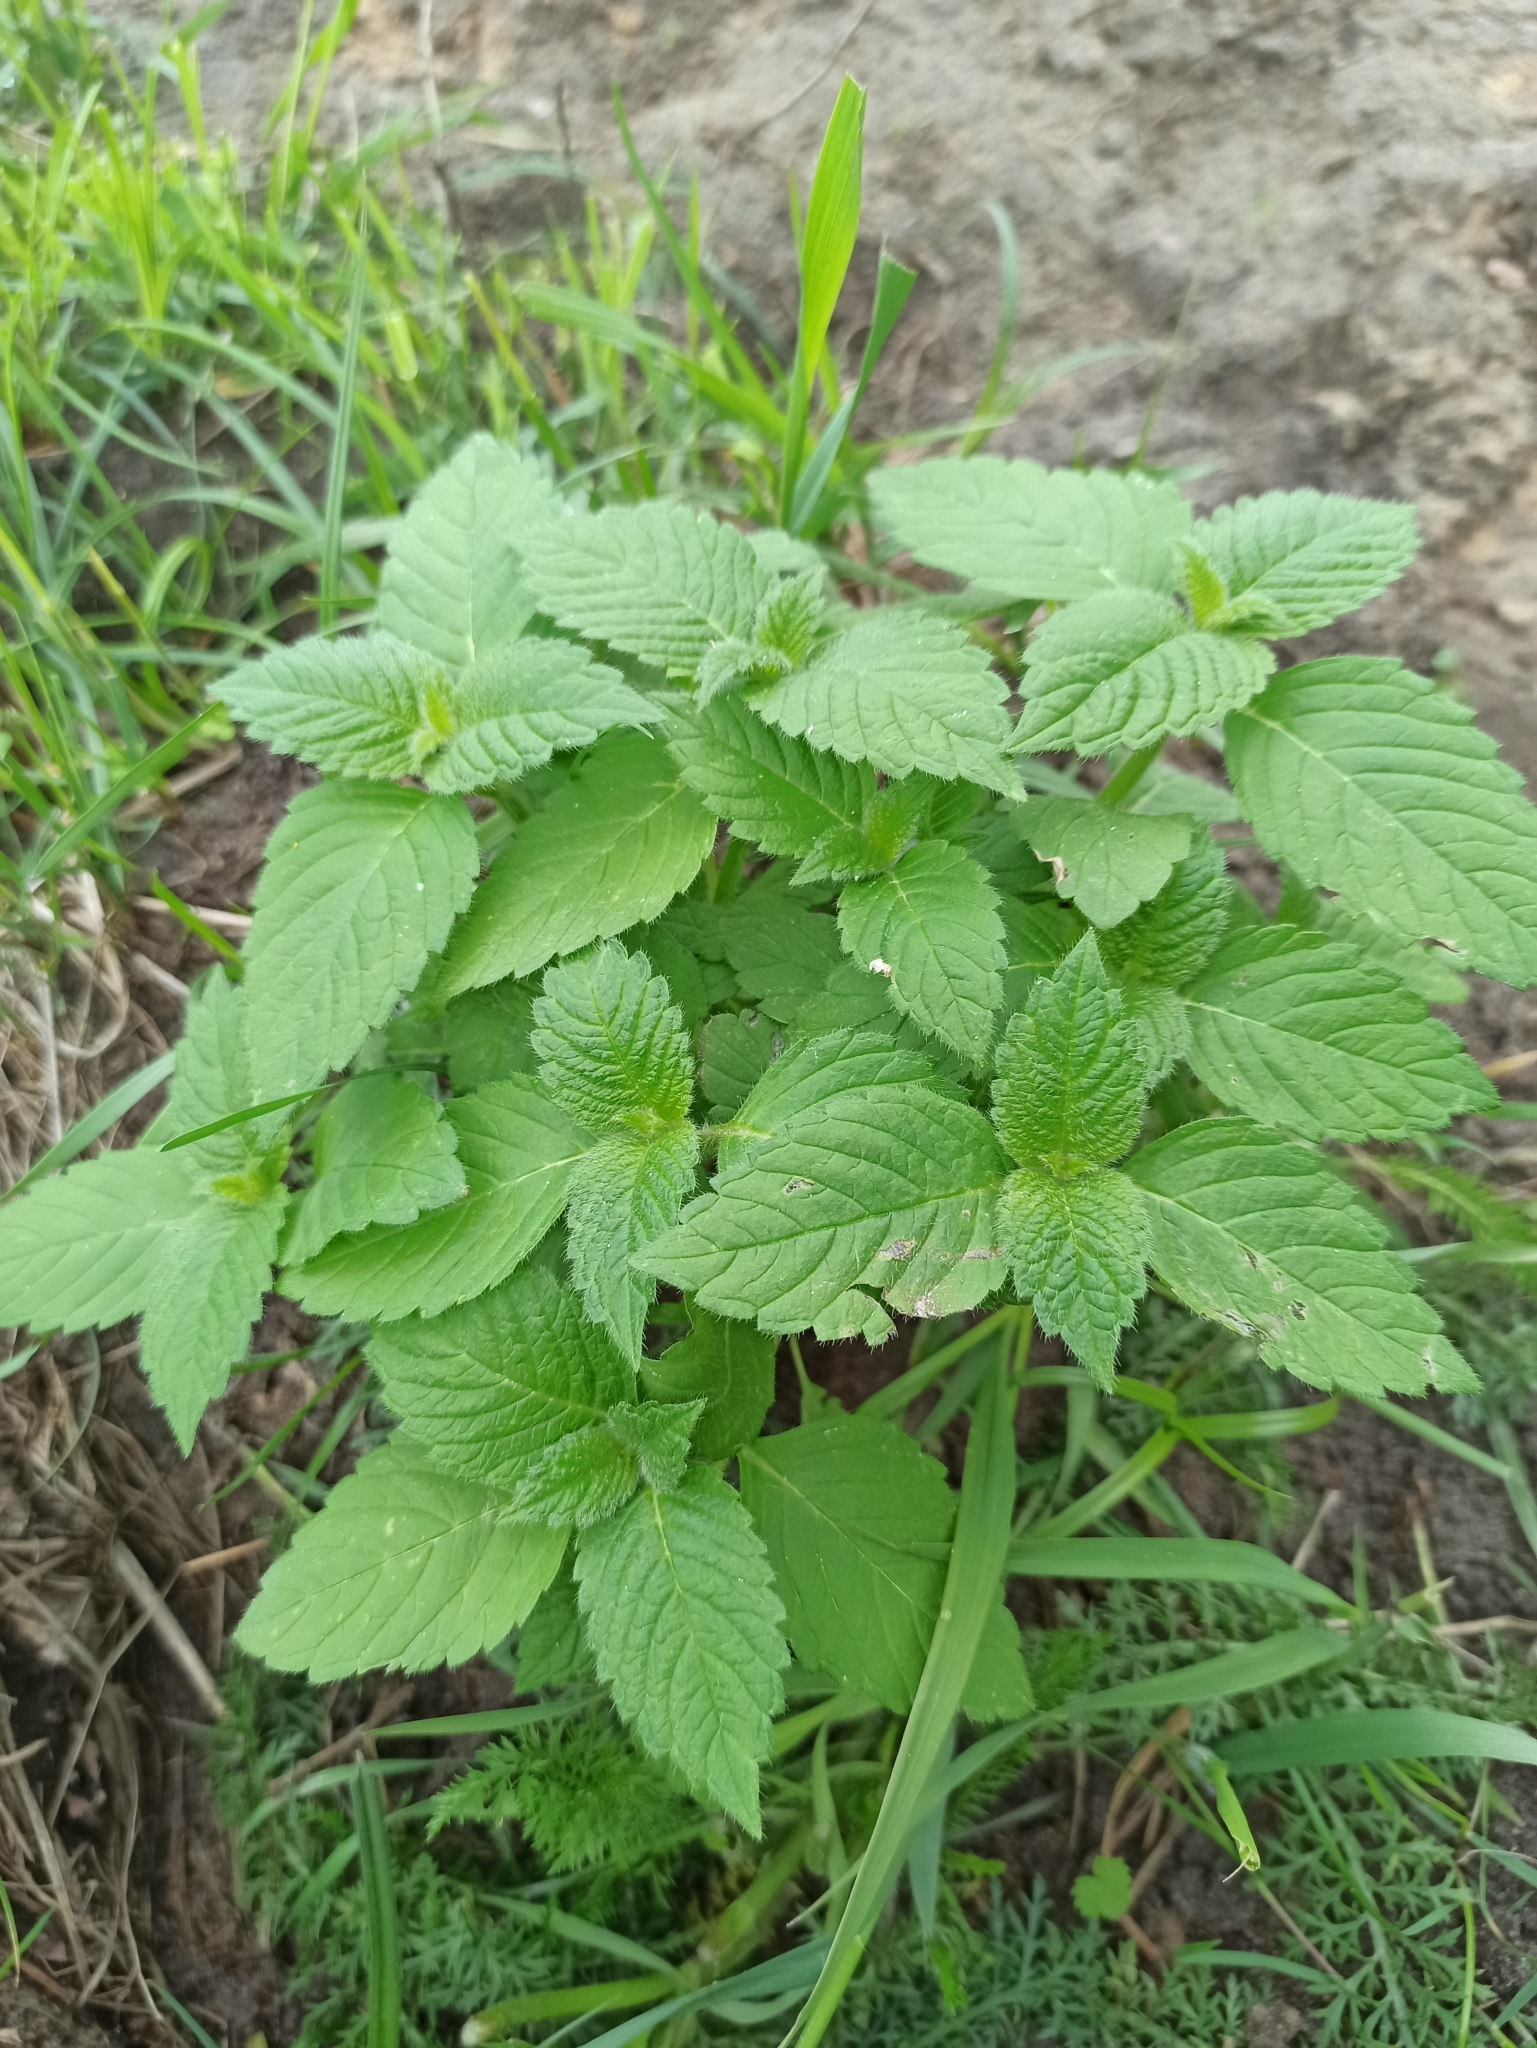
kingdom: Plantae
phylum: Tracheophyta
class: Magnoliopsida
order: Lamiales
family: Lamiaceae
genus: Galeopsis
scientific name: Galeopsis
